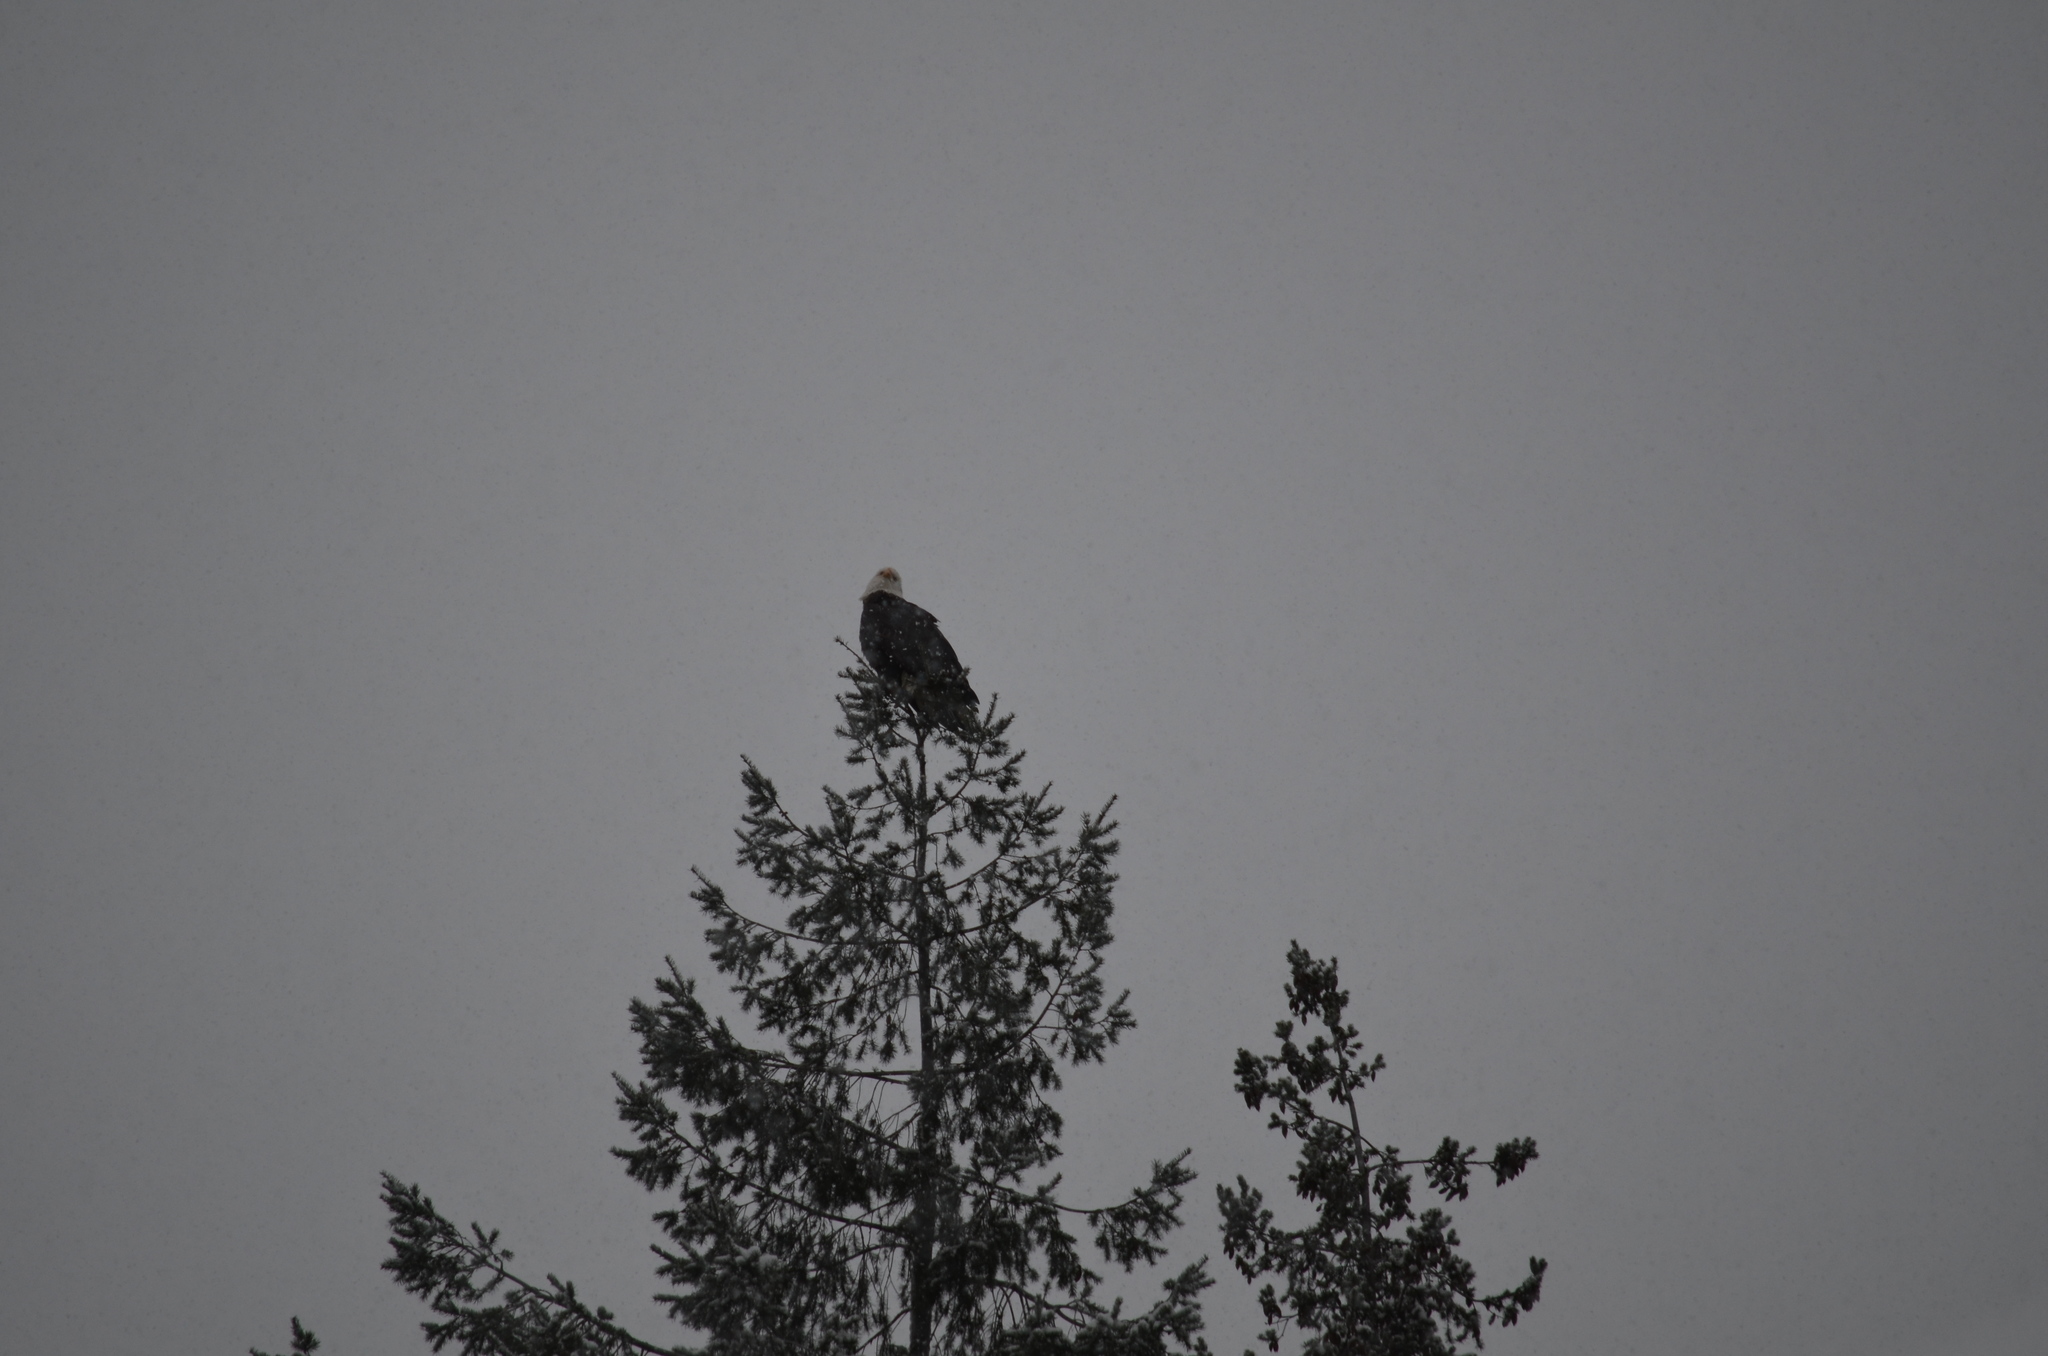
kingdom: Animalia
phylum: Chordata
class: Aves
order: Accipitriformes
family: Accipitridae
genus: Haliaeetus
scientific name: Haliaeetus leucocephalus
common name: Bald eagle
